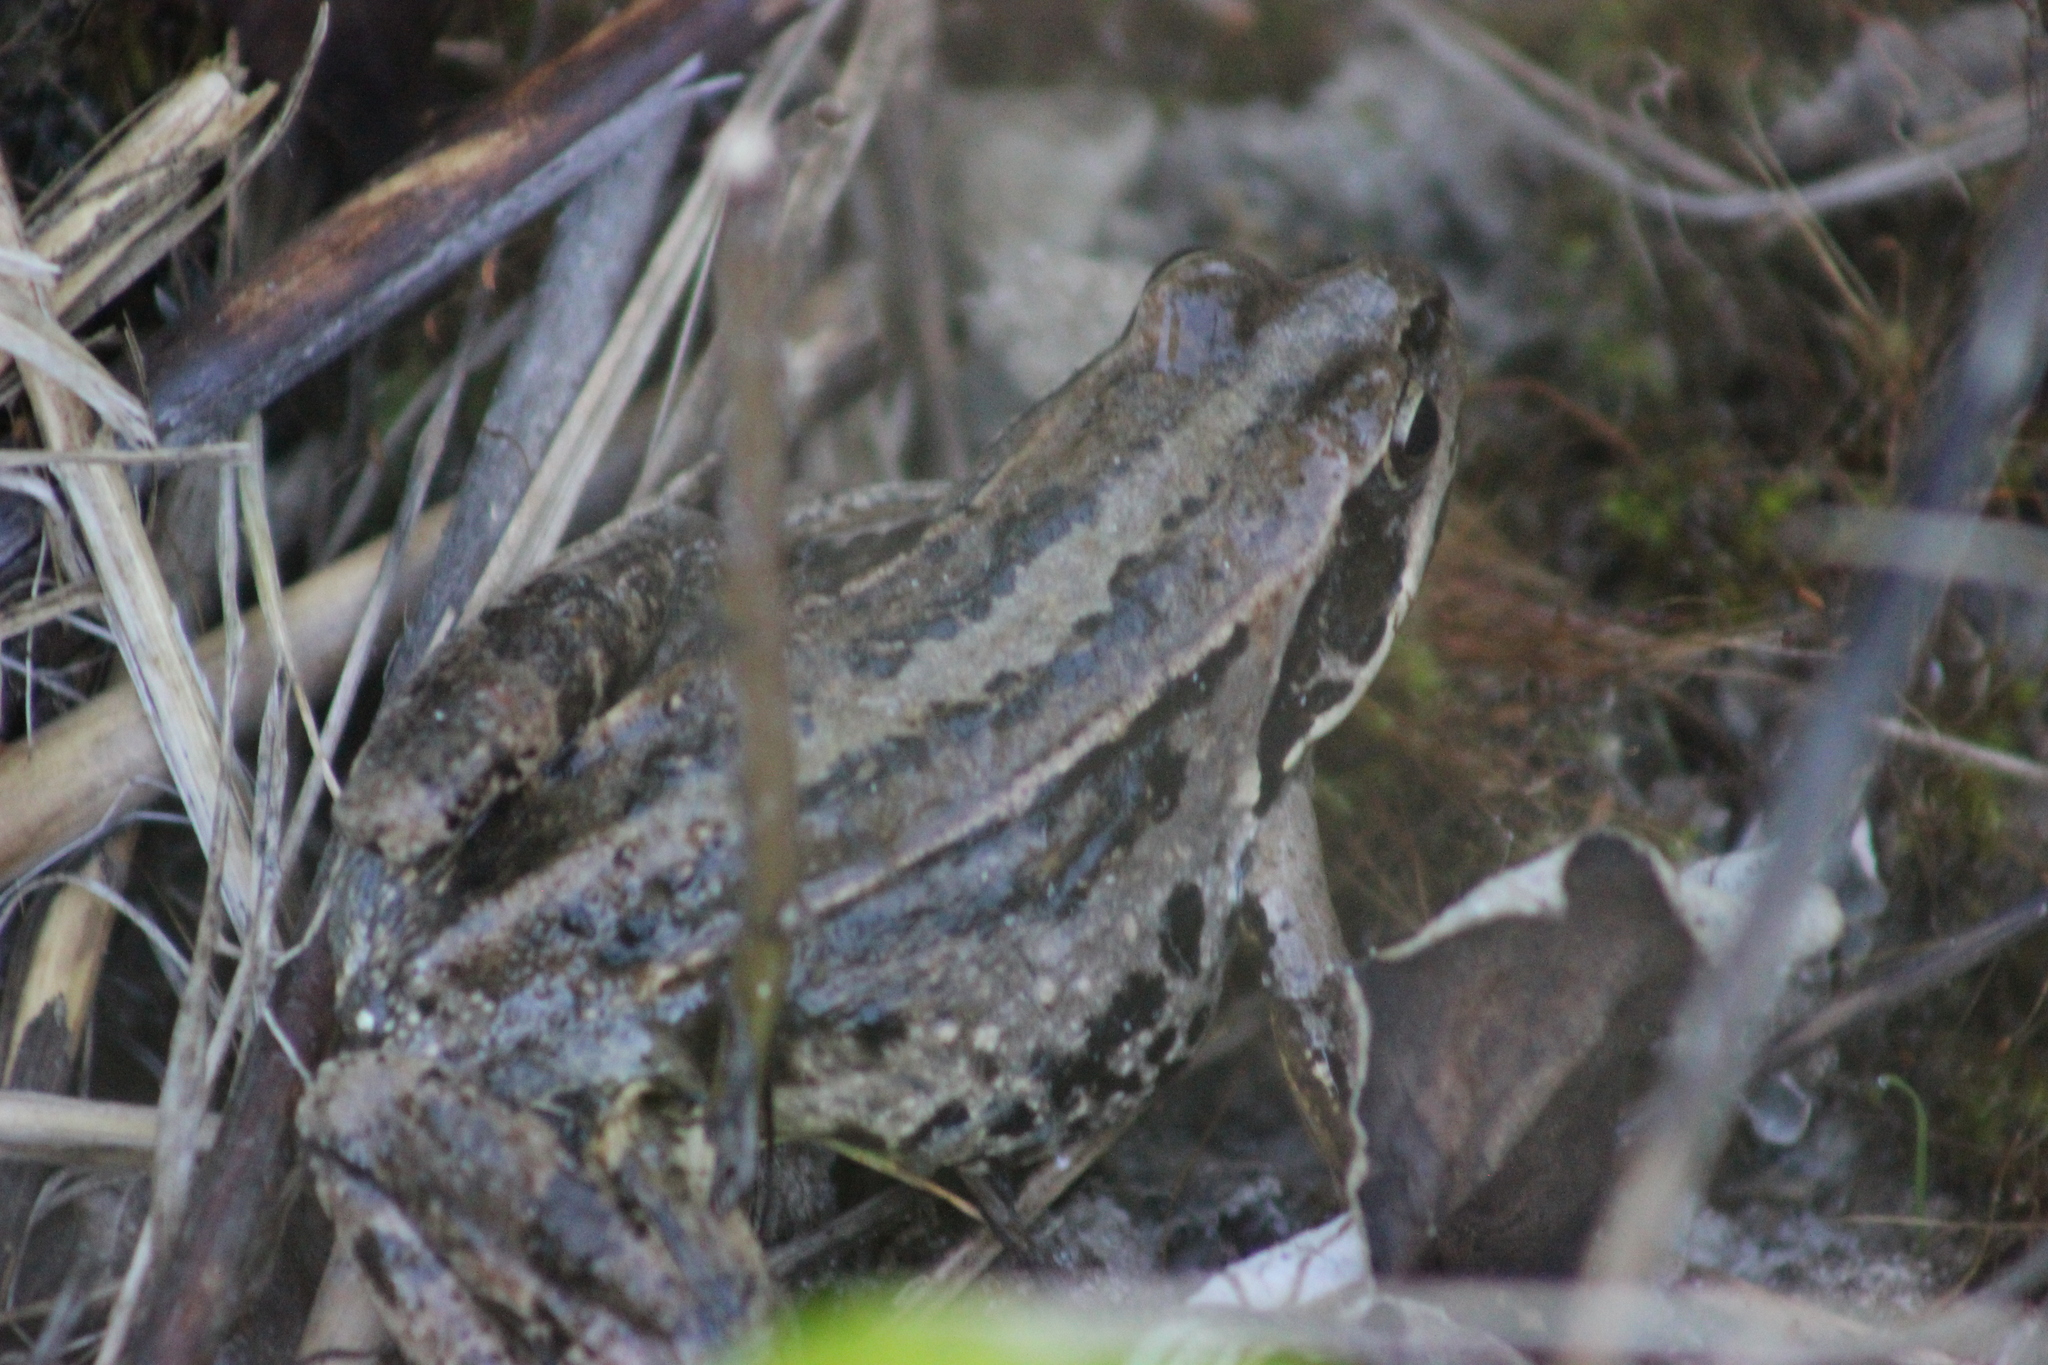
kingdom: Animalia
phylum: Chordata
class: Amphibia
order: Anura
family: Ranidae
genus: Rana
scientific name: Rana arvalis
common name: Moor frog
